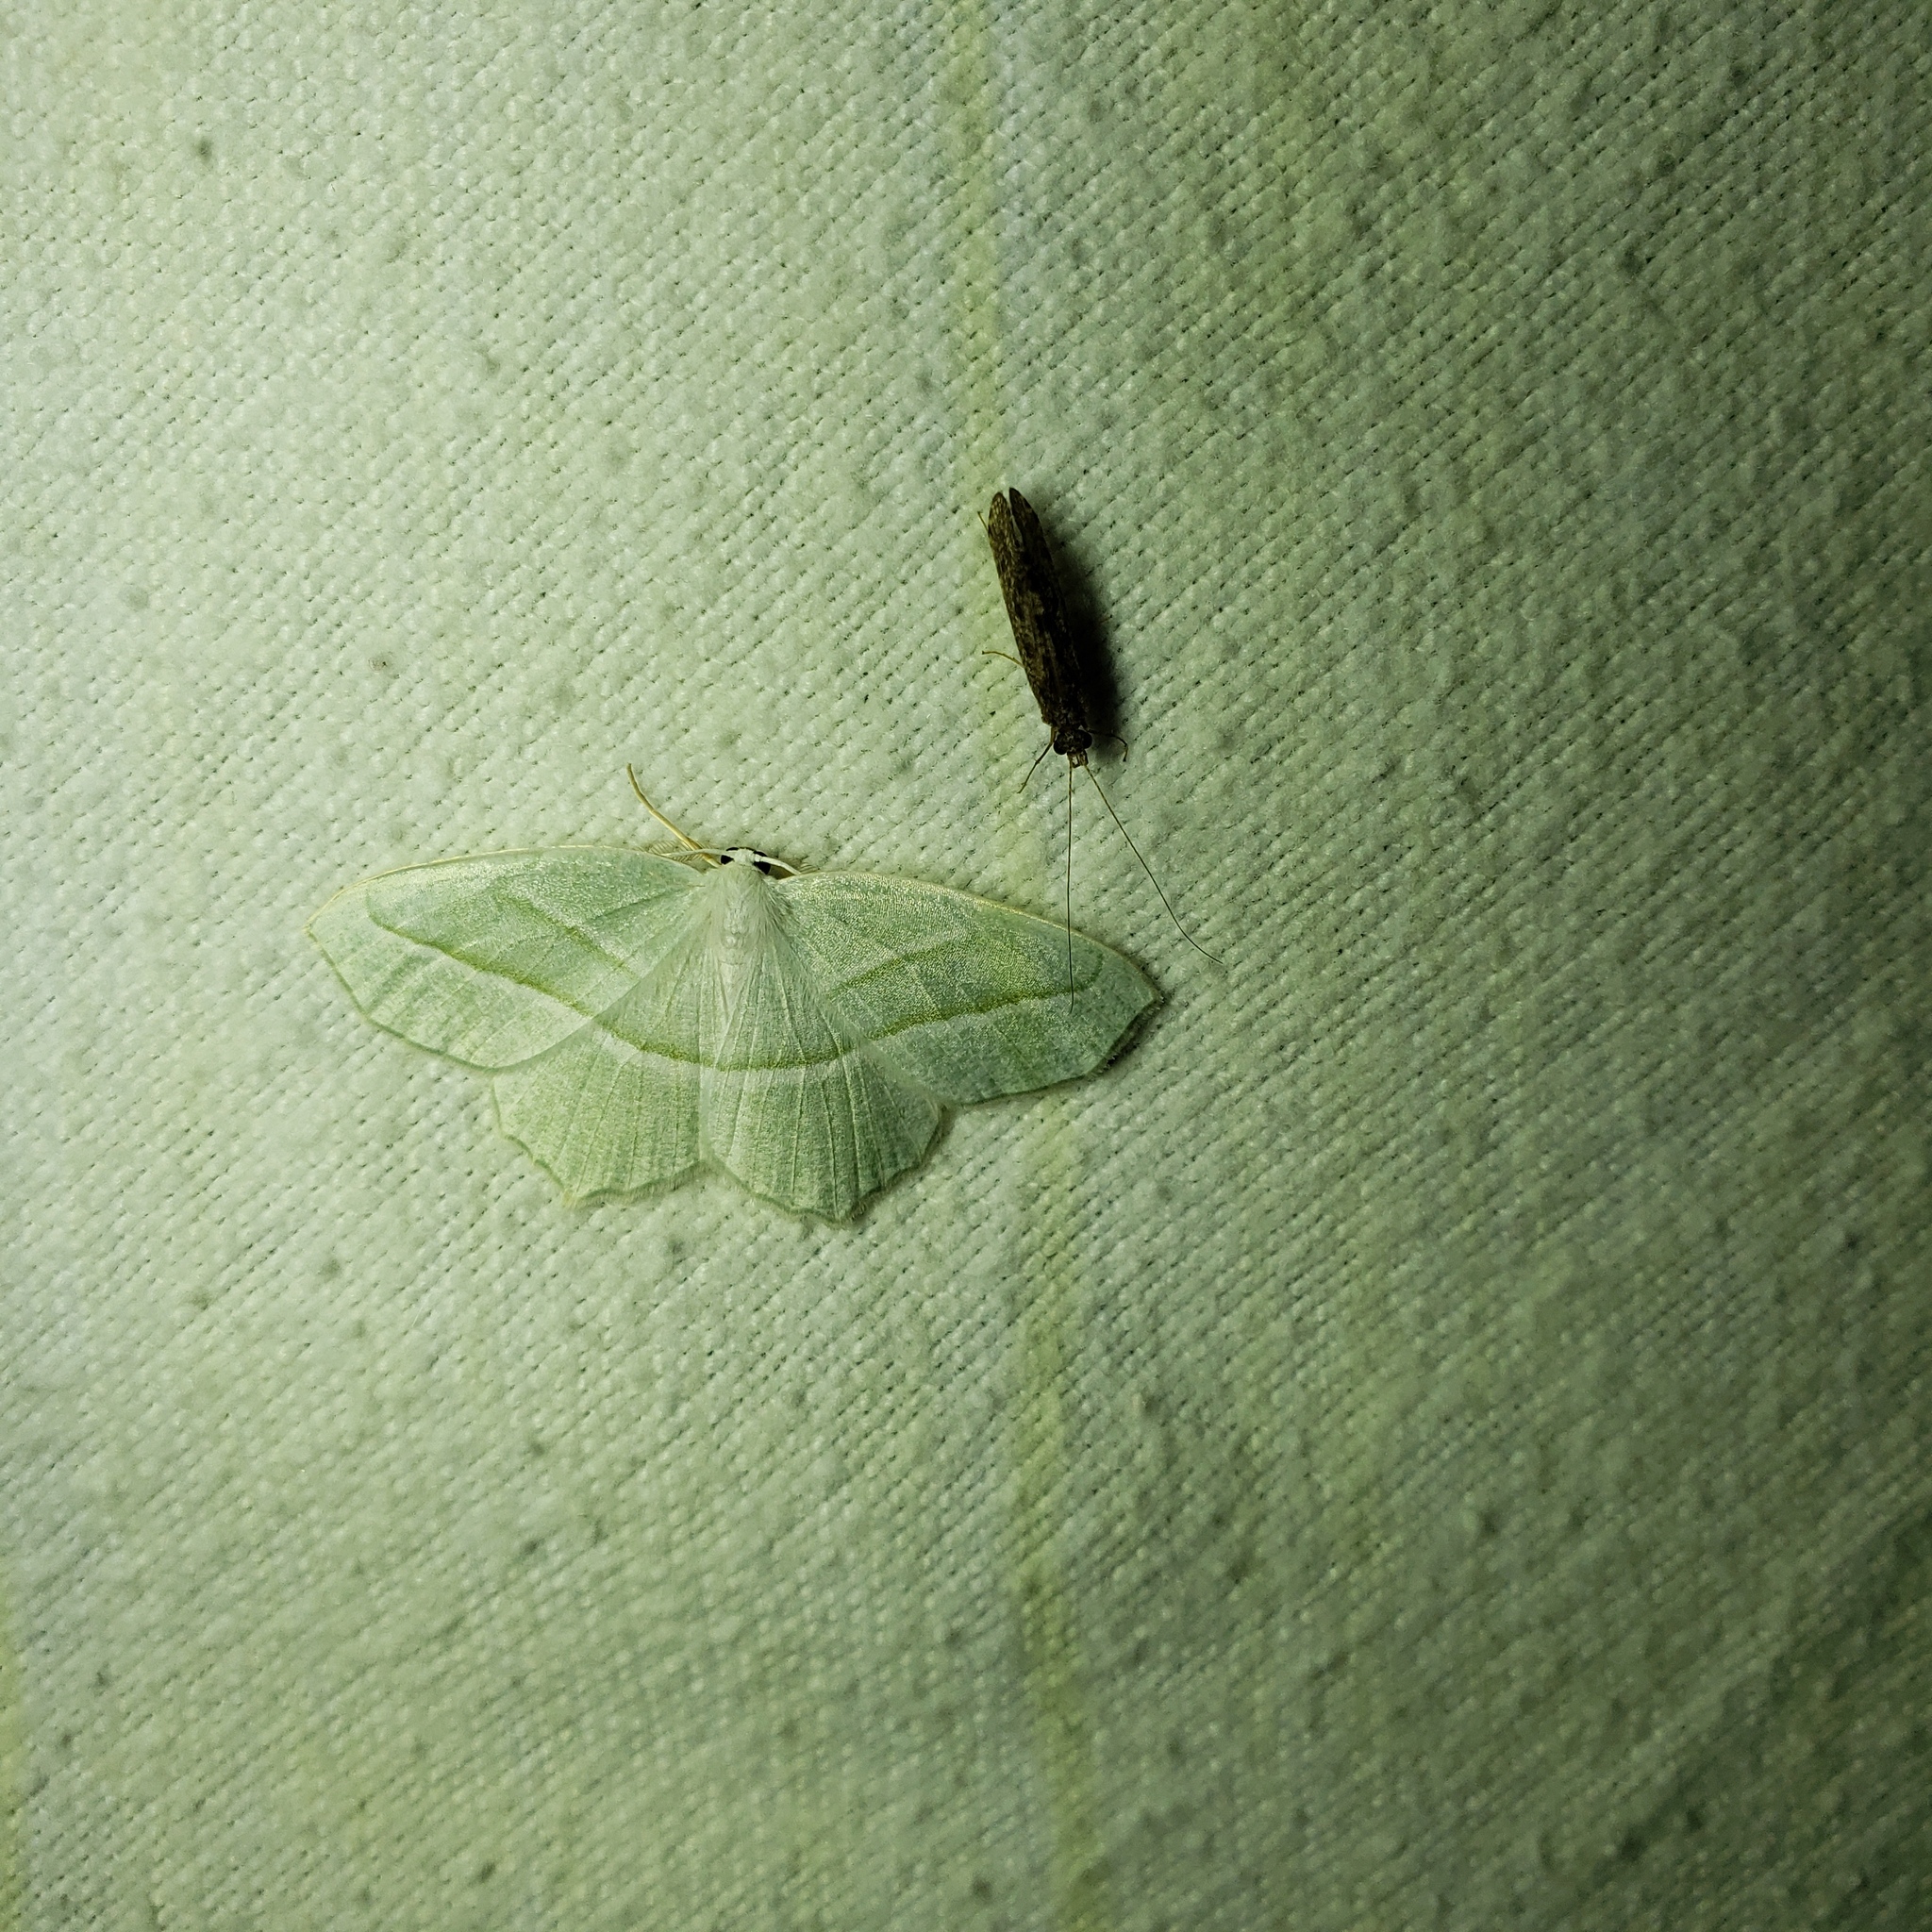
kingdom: Animalia
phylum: Arthropoda
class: Insecta
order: Lepidoptera
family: Geometridae
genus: Campaea
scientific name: Campaea perlata
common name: Fringed looper
